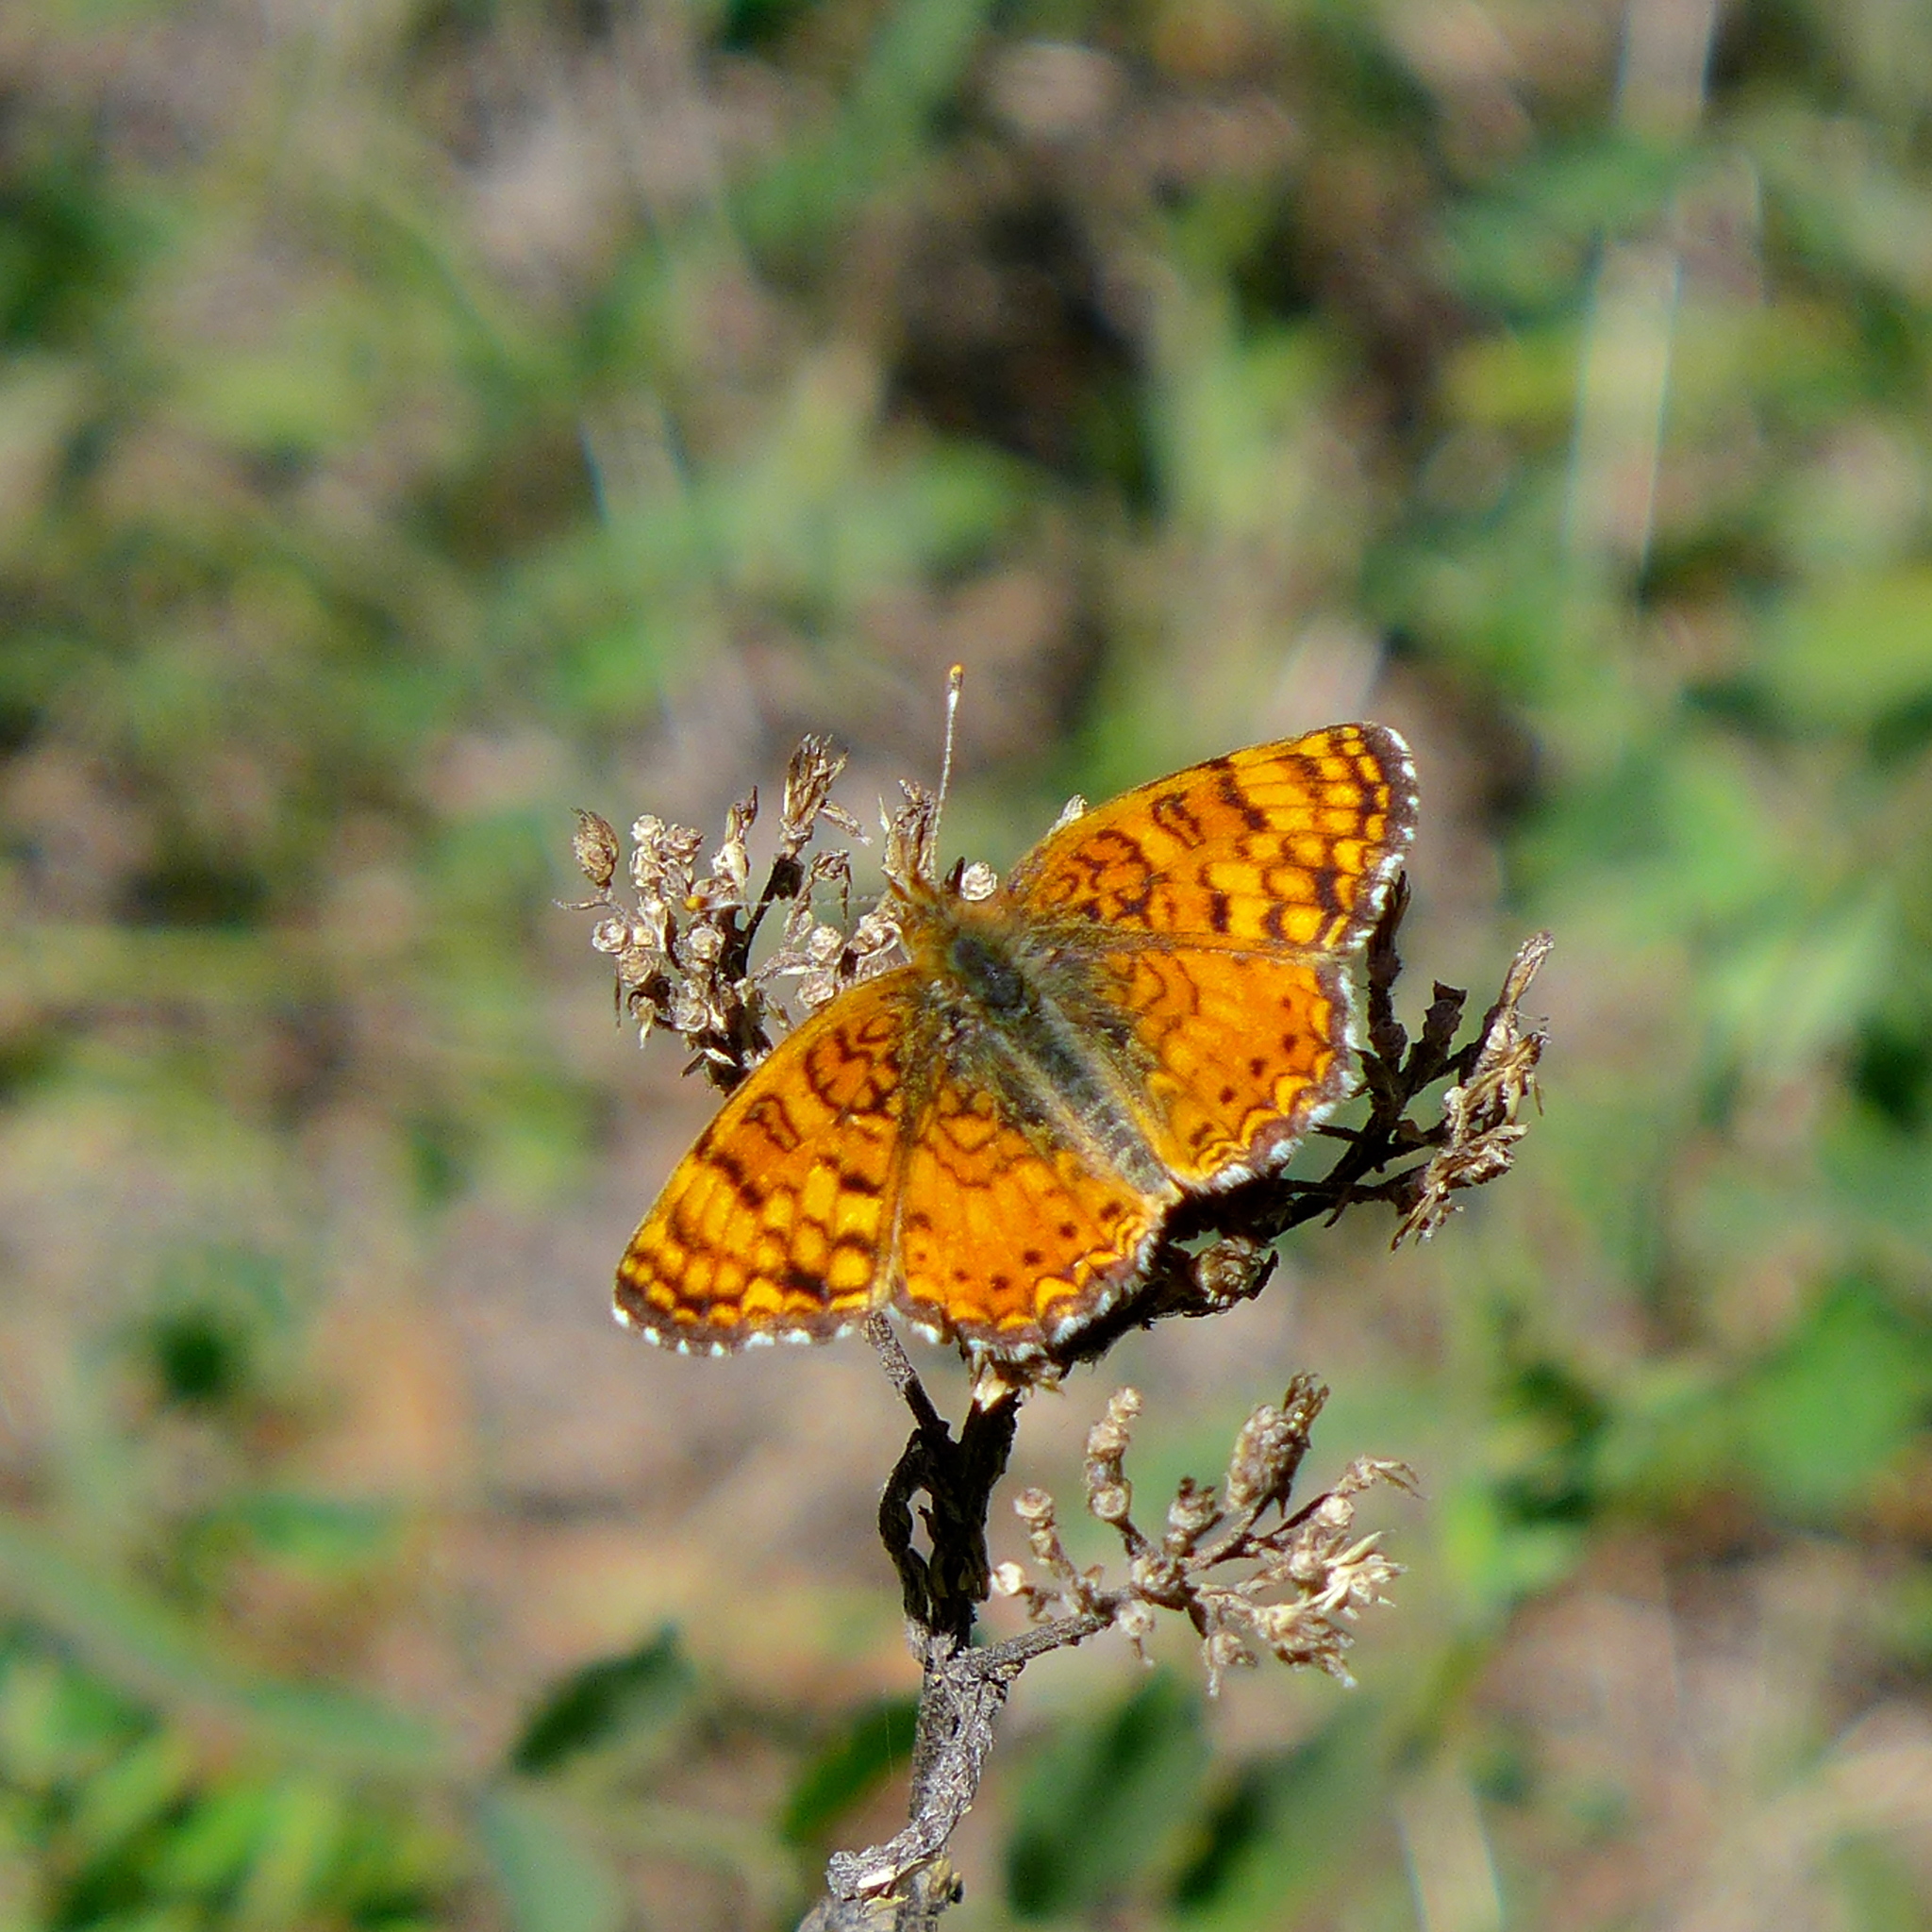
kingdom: Animalia
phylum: Arthropoda
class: Insecta
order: Lepidoptera
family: Nymphalidae
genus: Eresia
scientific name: Eresia aveyrona
